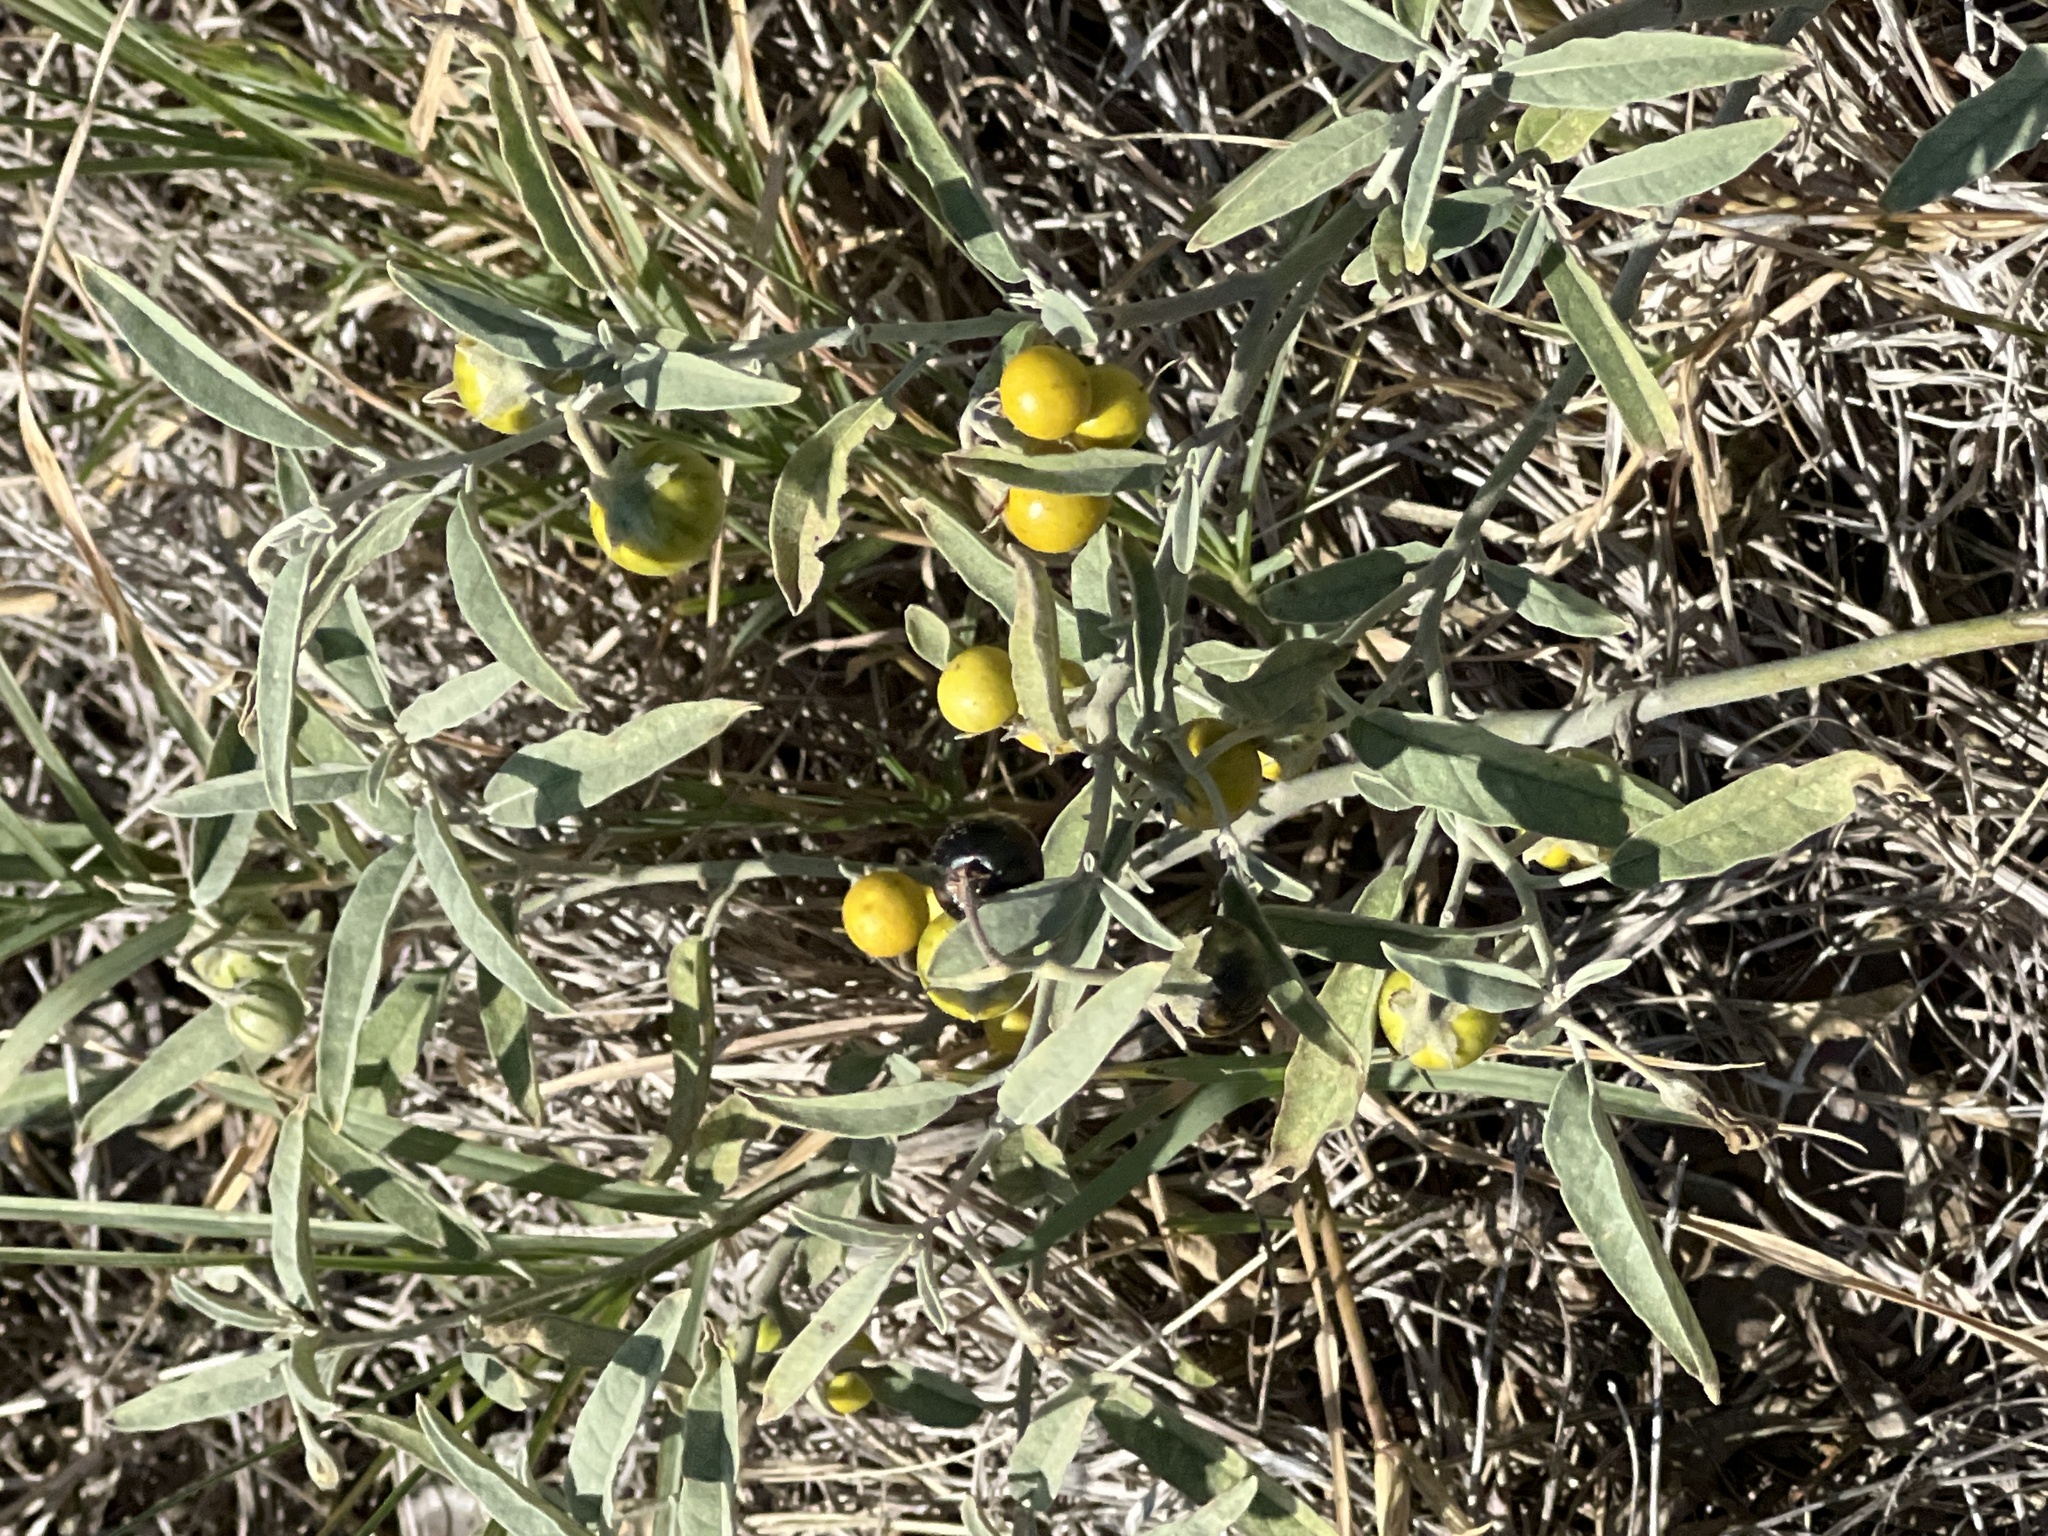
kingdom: Plantae
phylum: Tracheophyta
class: Magnoliopsida
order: Solanales
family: Solanaceae
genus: Solanum
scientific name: Solanum elaeagnifolium
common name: Silverleaf nightshade
